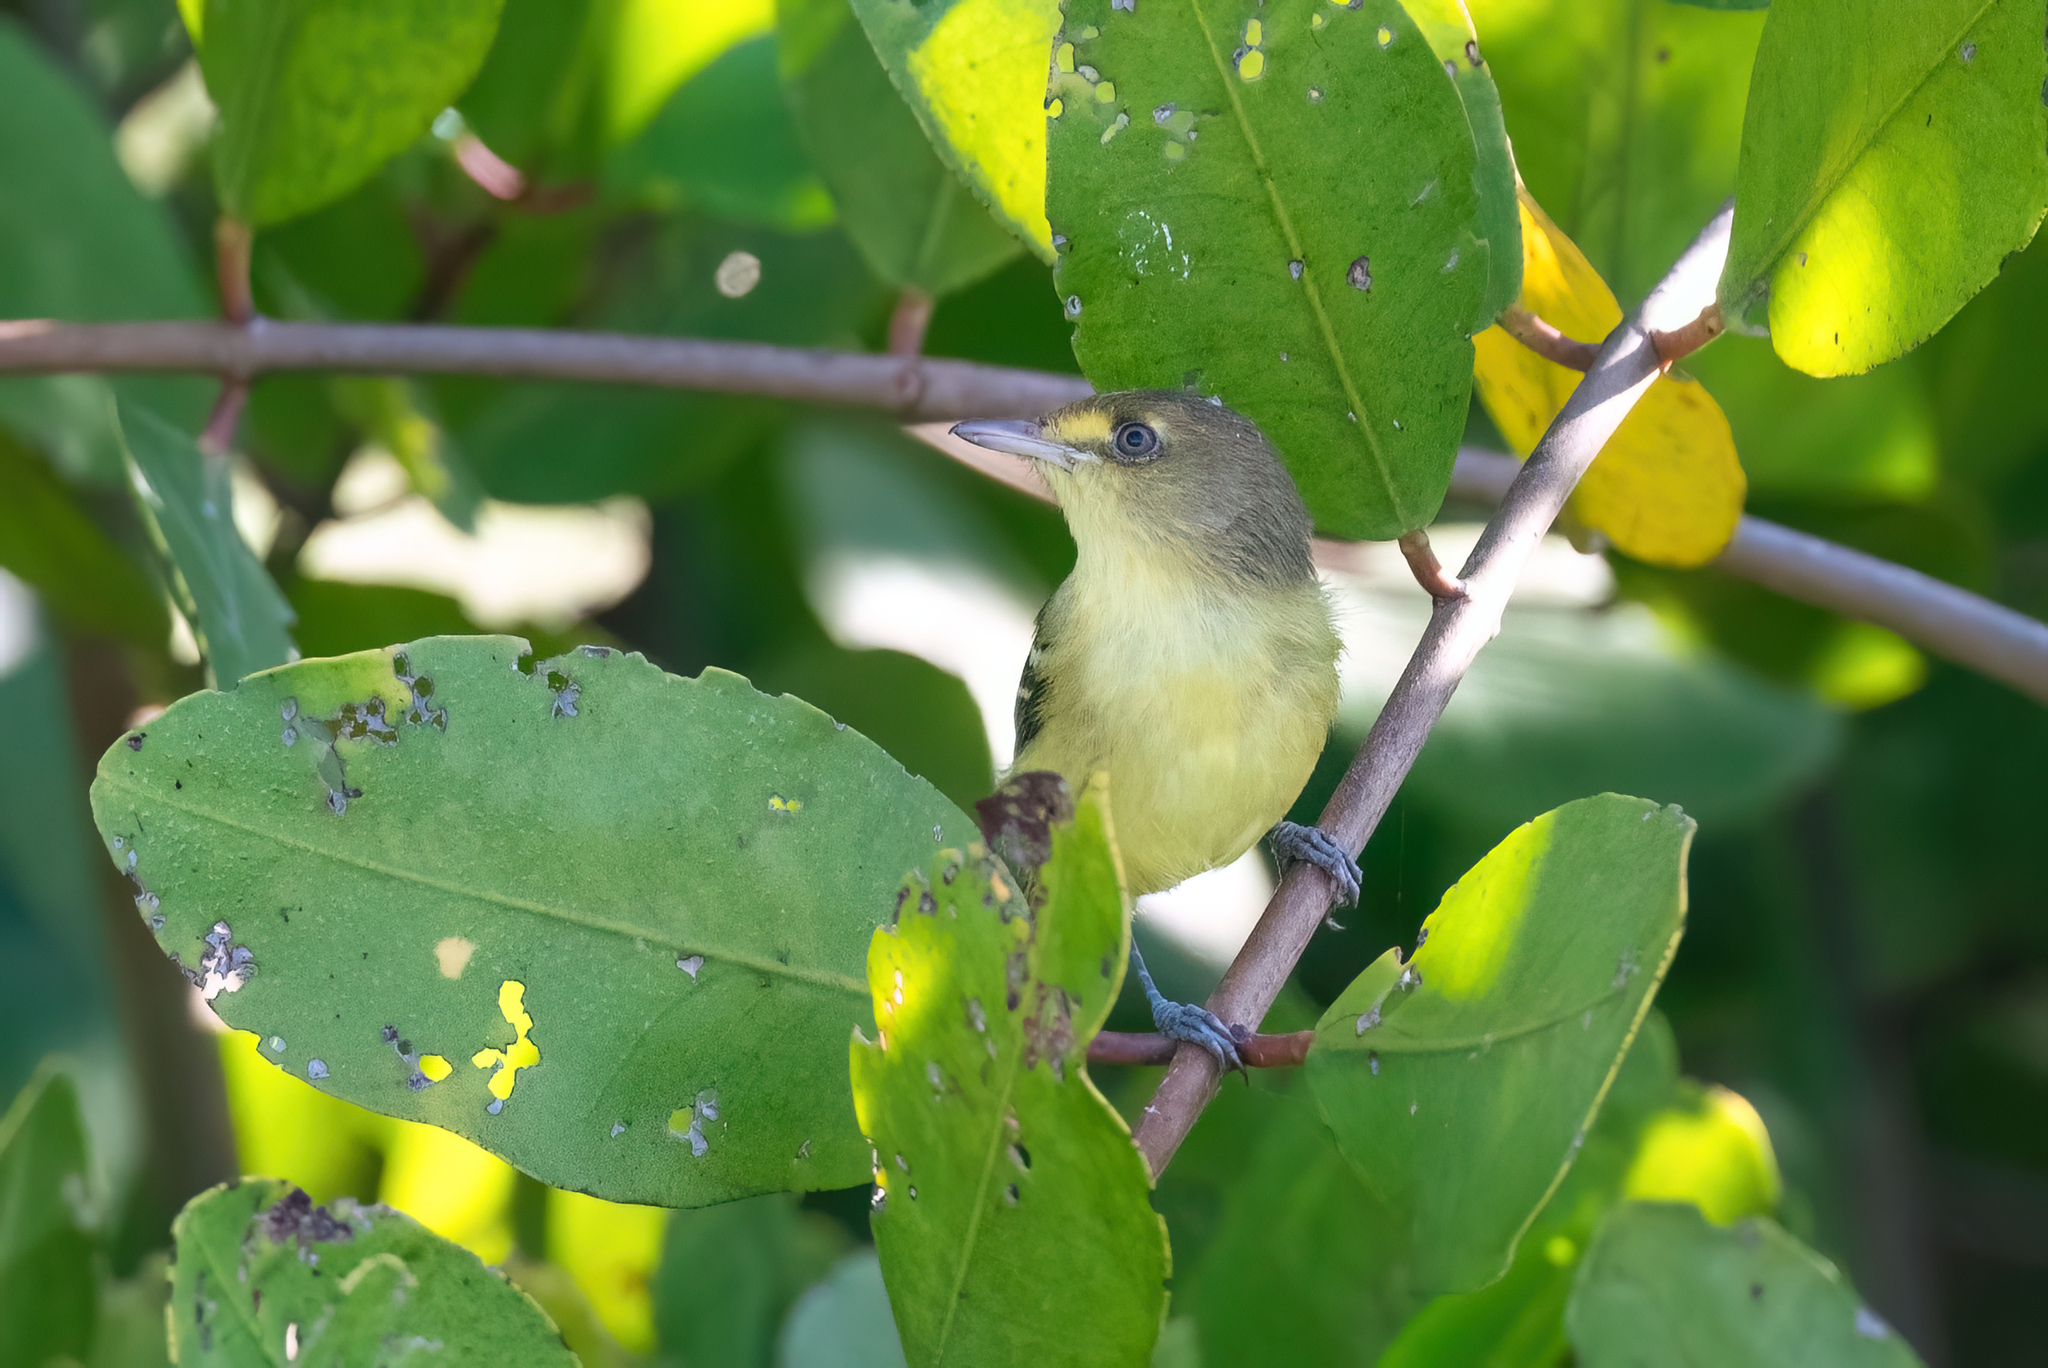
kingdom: Animalia
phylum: Chordata
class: Aves
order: Passeriformes
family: Vireonidae
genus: Vireo
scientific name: Vireo pallens
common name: Mangrove vireo
